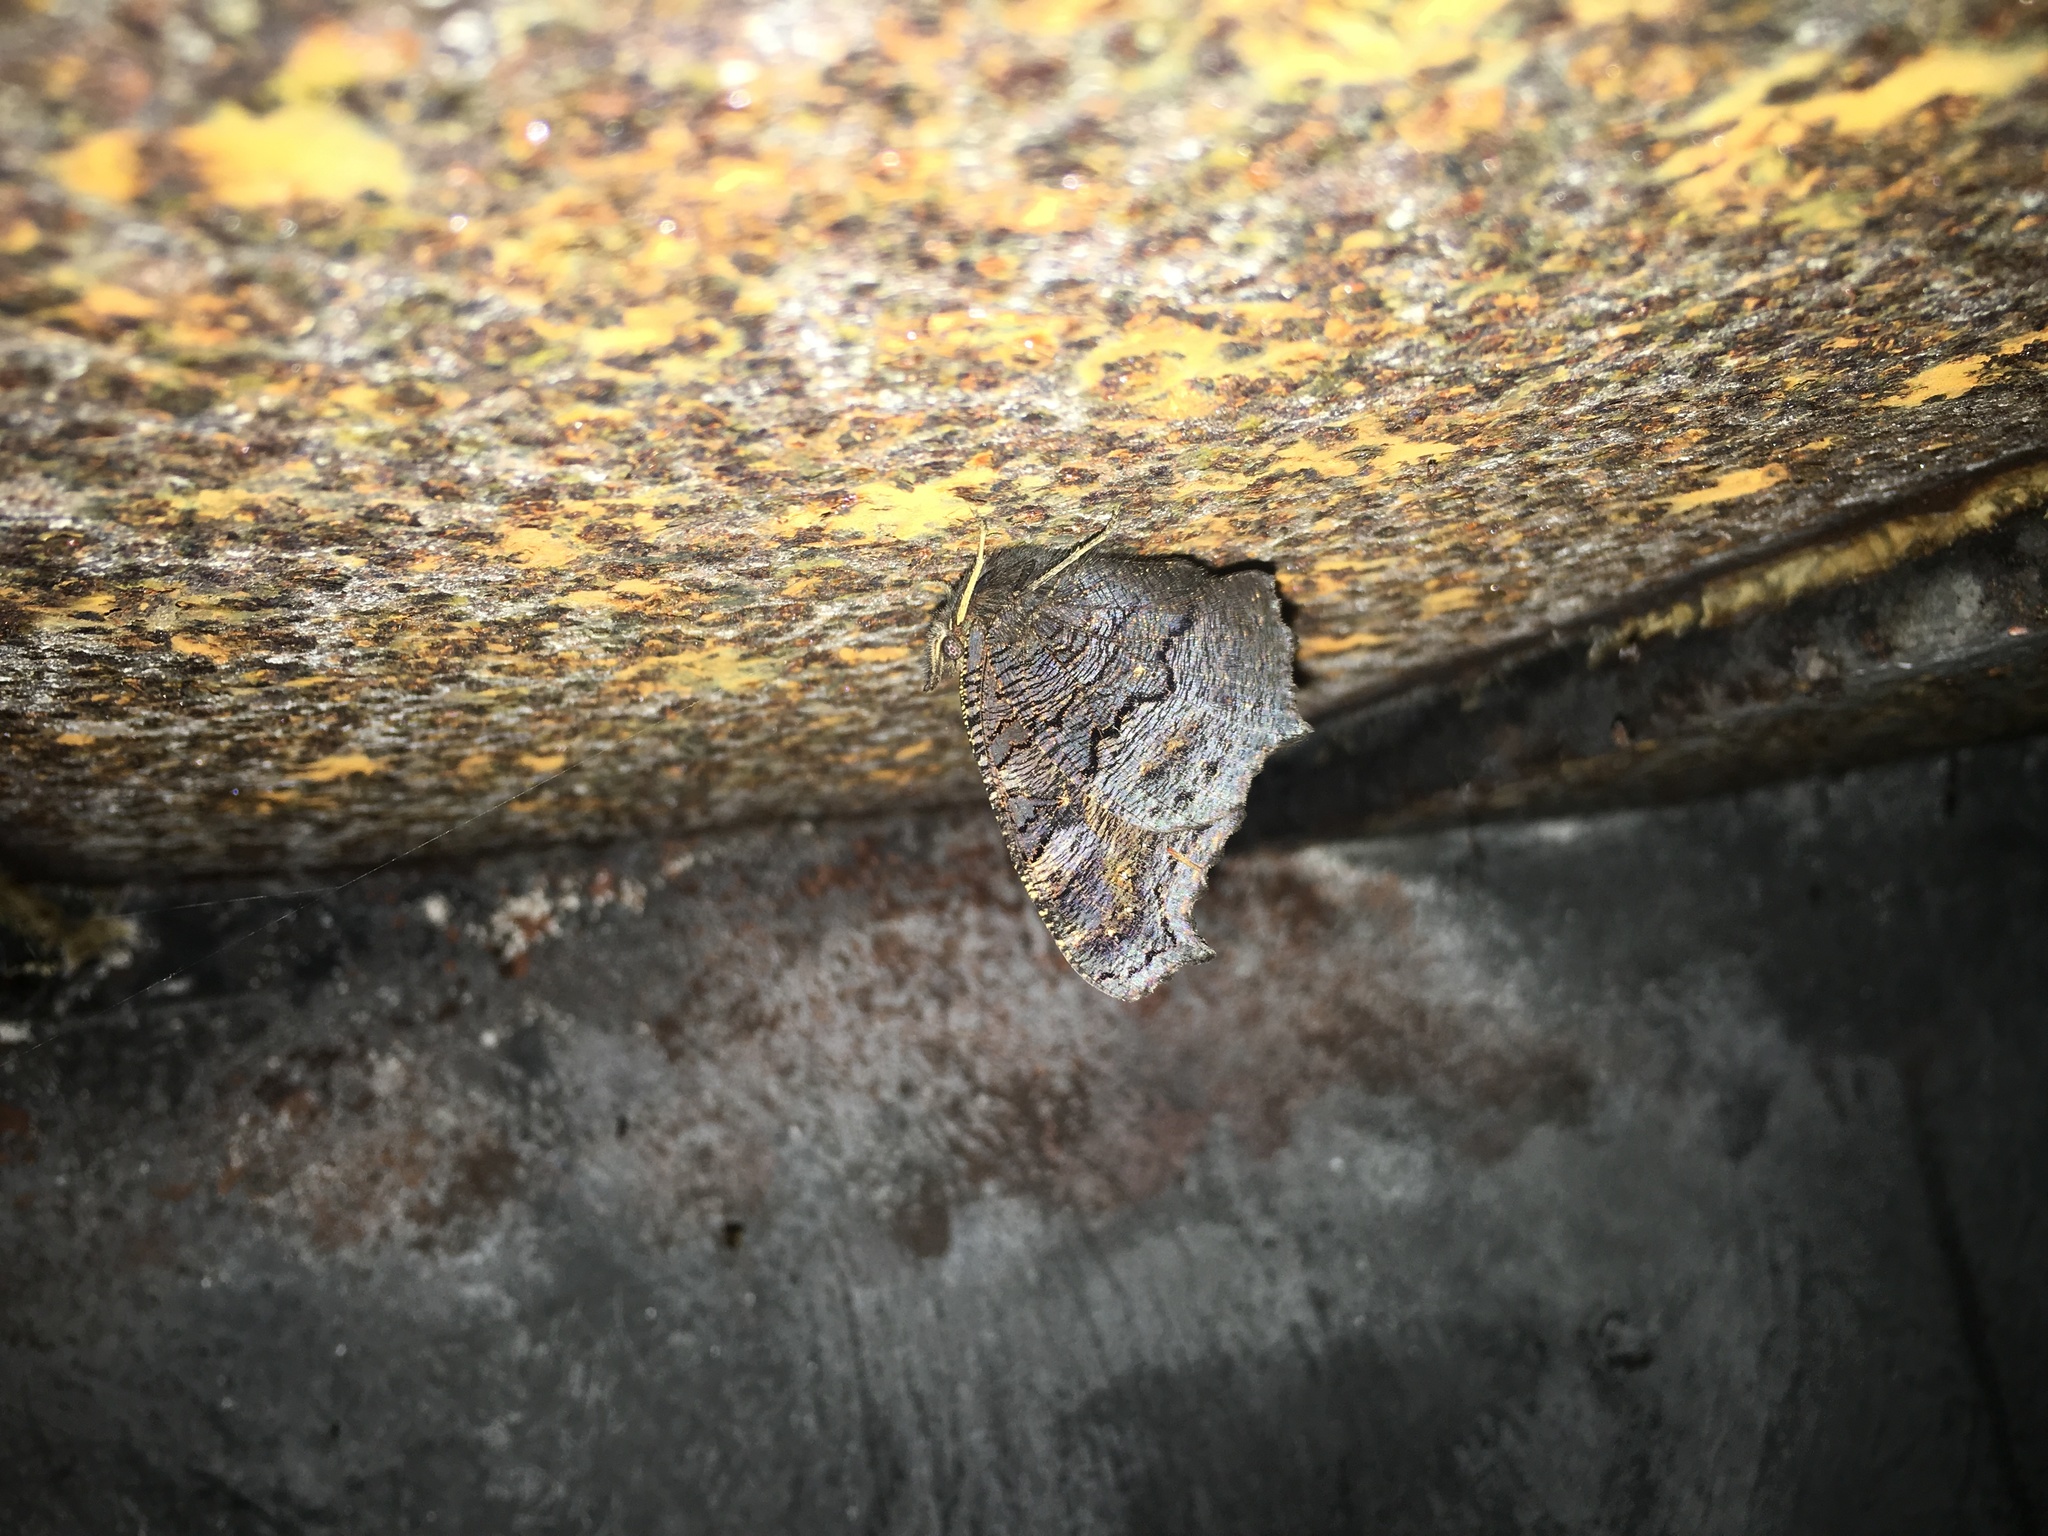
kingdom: Animalia
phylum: Arthropoda
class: Insecta
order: Lepidoptera
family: Nymphalidae
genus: Aglais
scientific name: Aglais io
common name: Peacock
